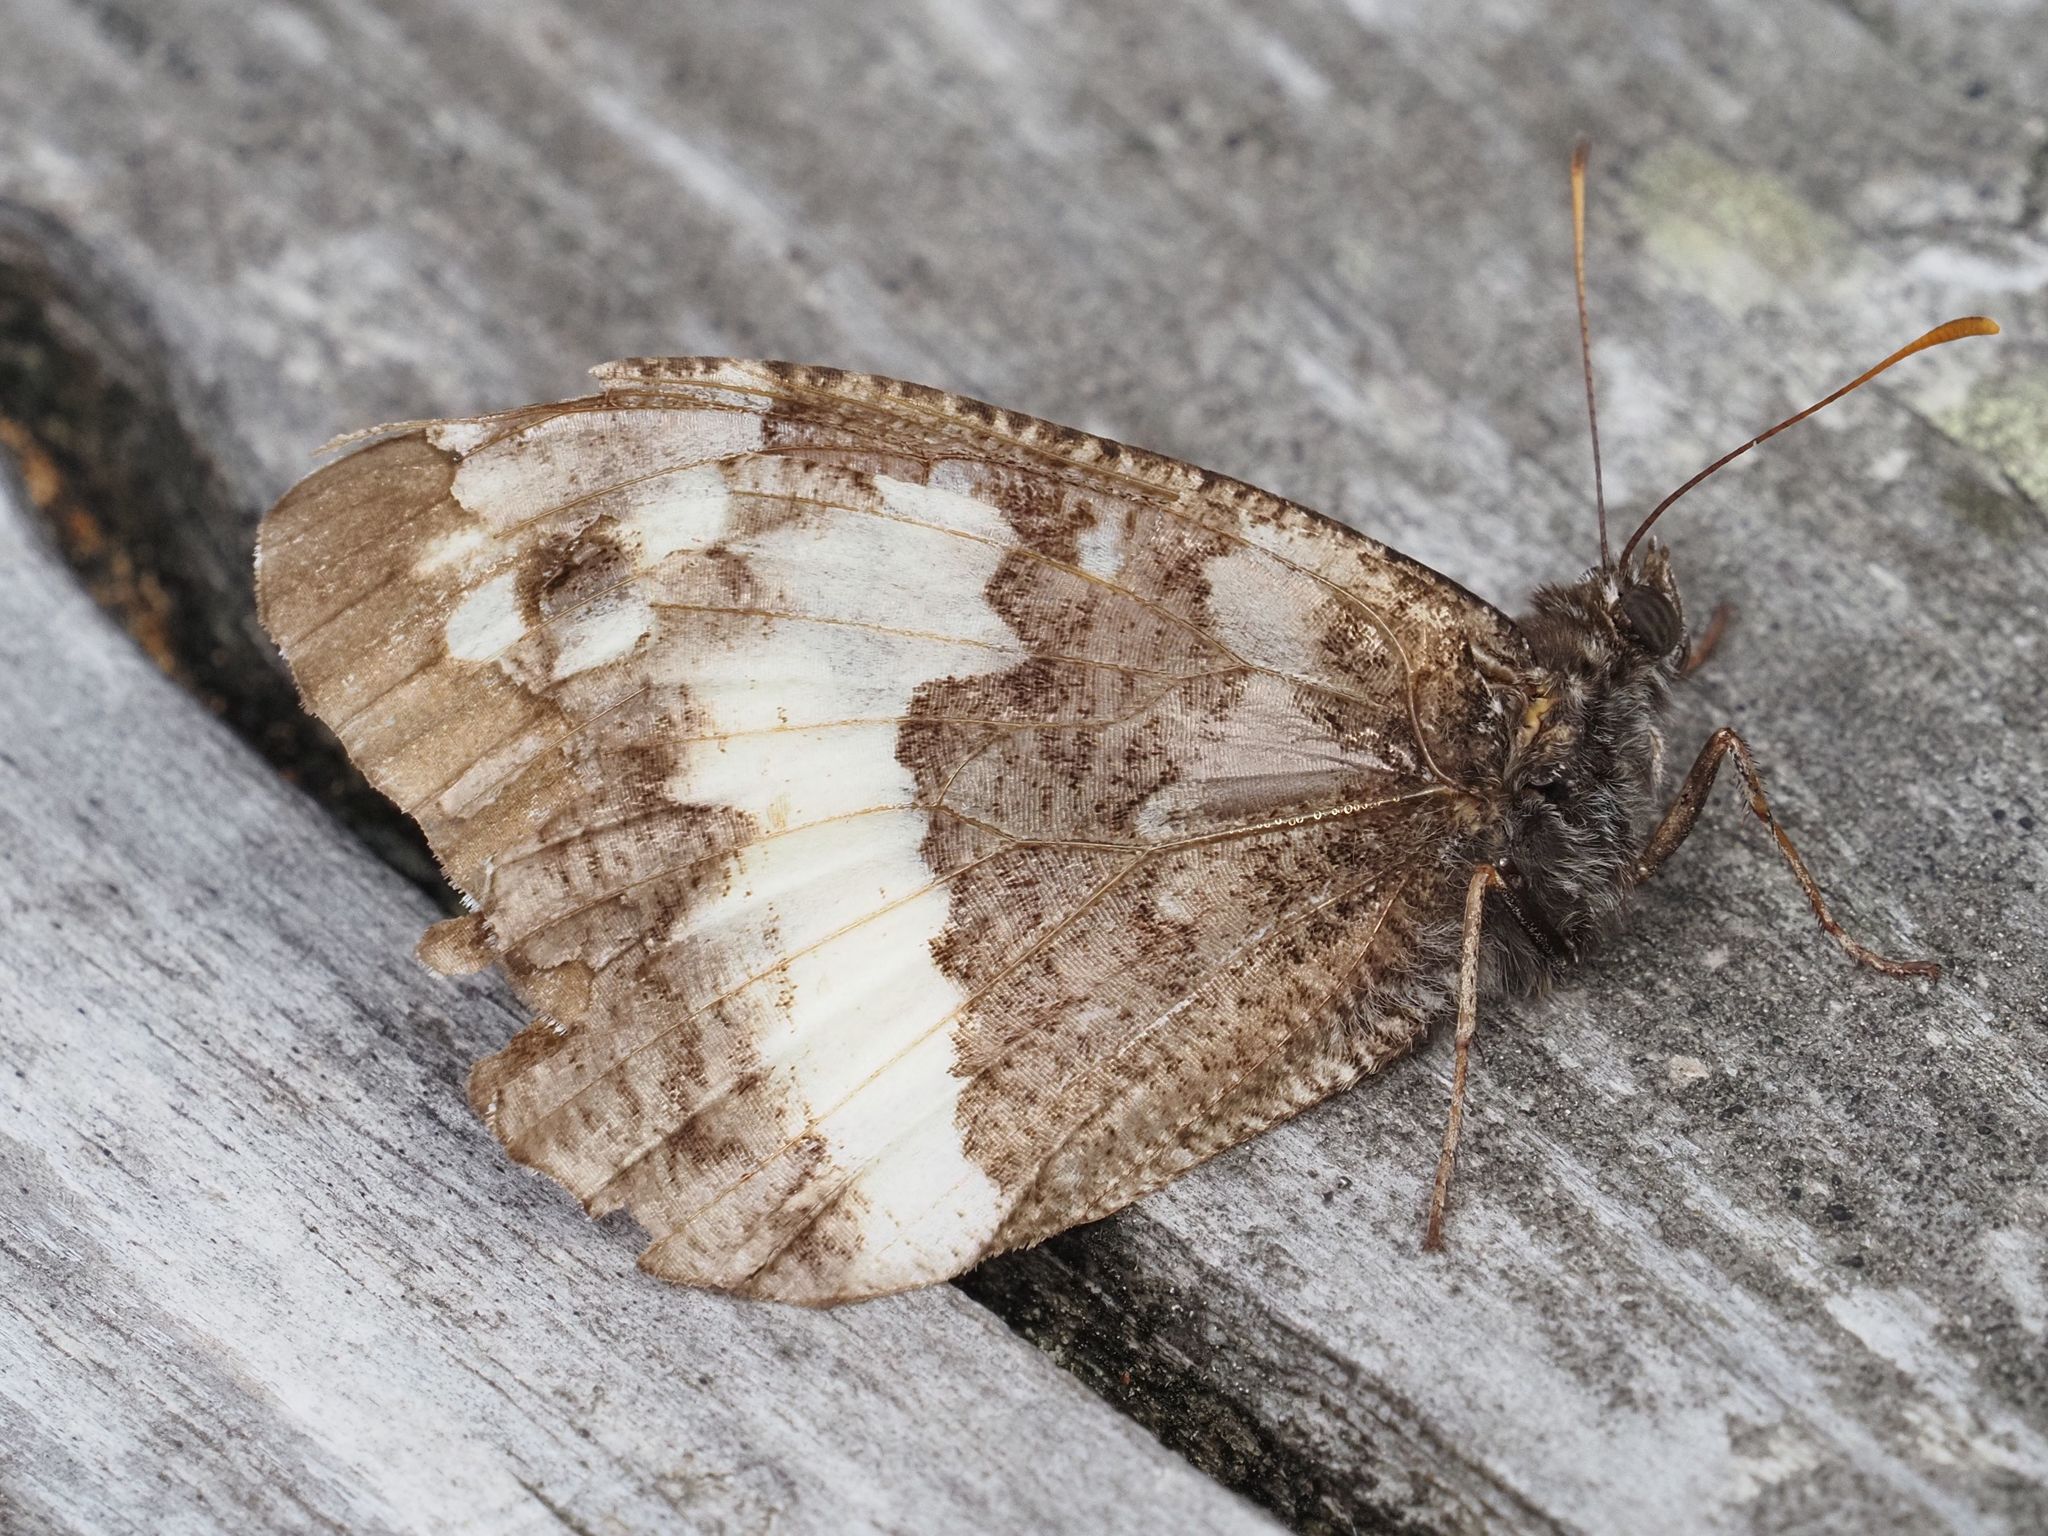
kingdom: Animalia
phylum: Arthropoda
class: Insecta
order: Lepidoptera
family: Lycaenidae
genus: Loweia
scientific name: Loweia tityrus
